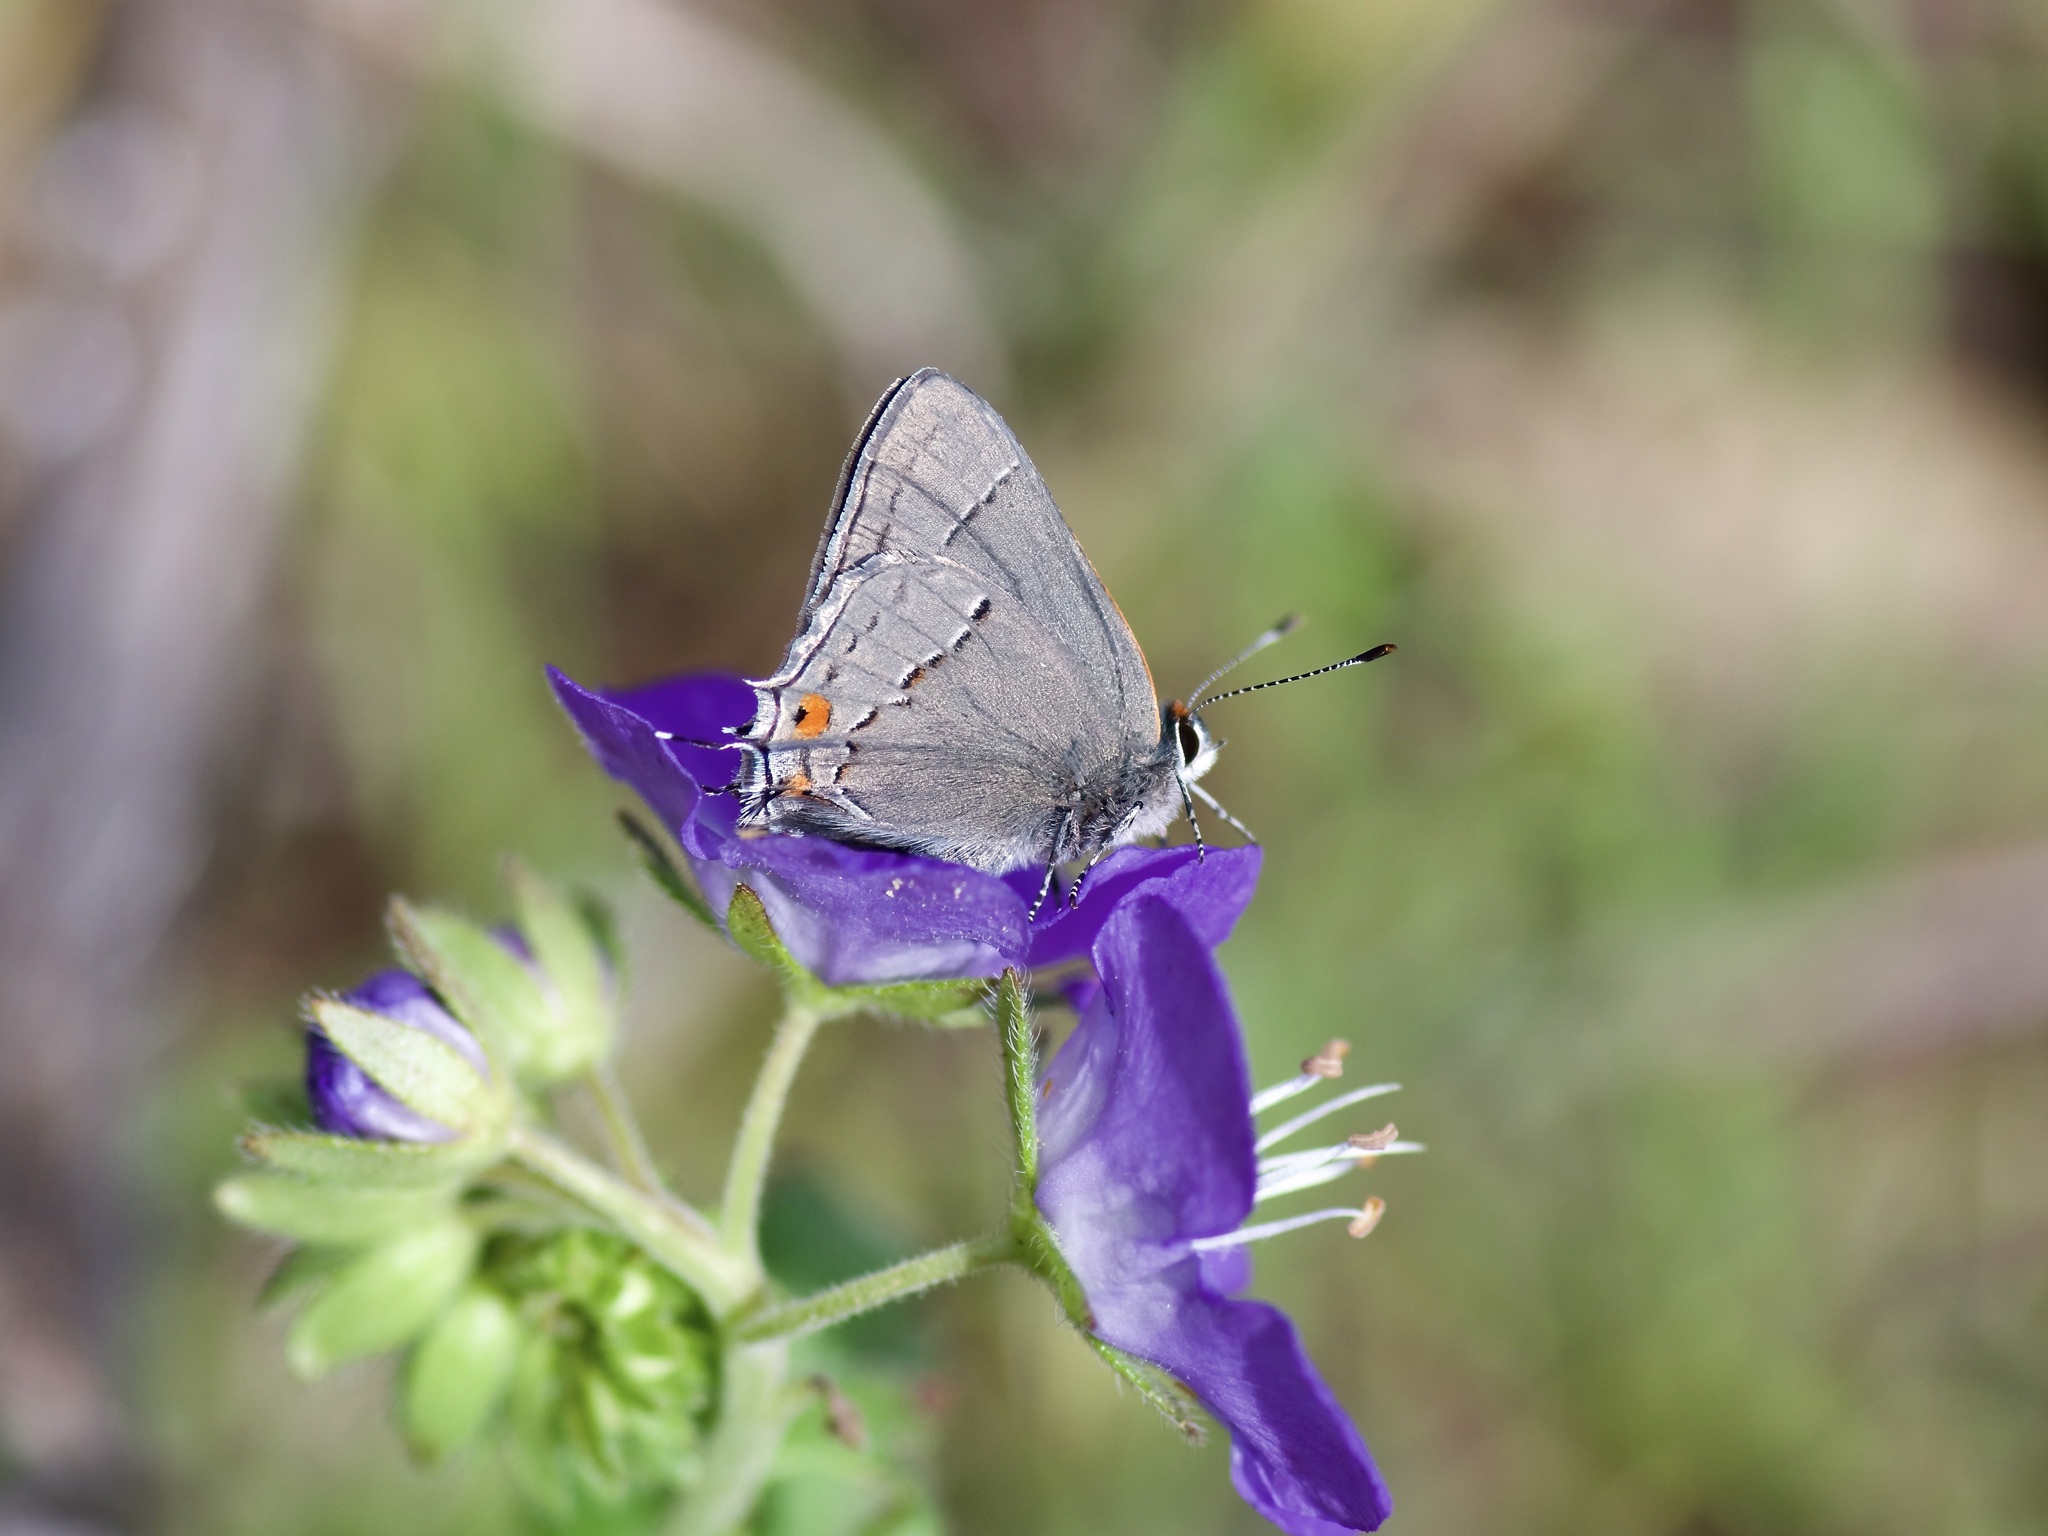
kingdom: Animalia
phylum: Arthropoda
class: Insecta
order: Lepidoptera
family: Lycaenidae
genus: Strymon
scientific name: Strymon melinus
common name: Gray hairstreak
